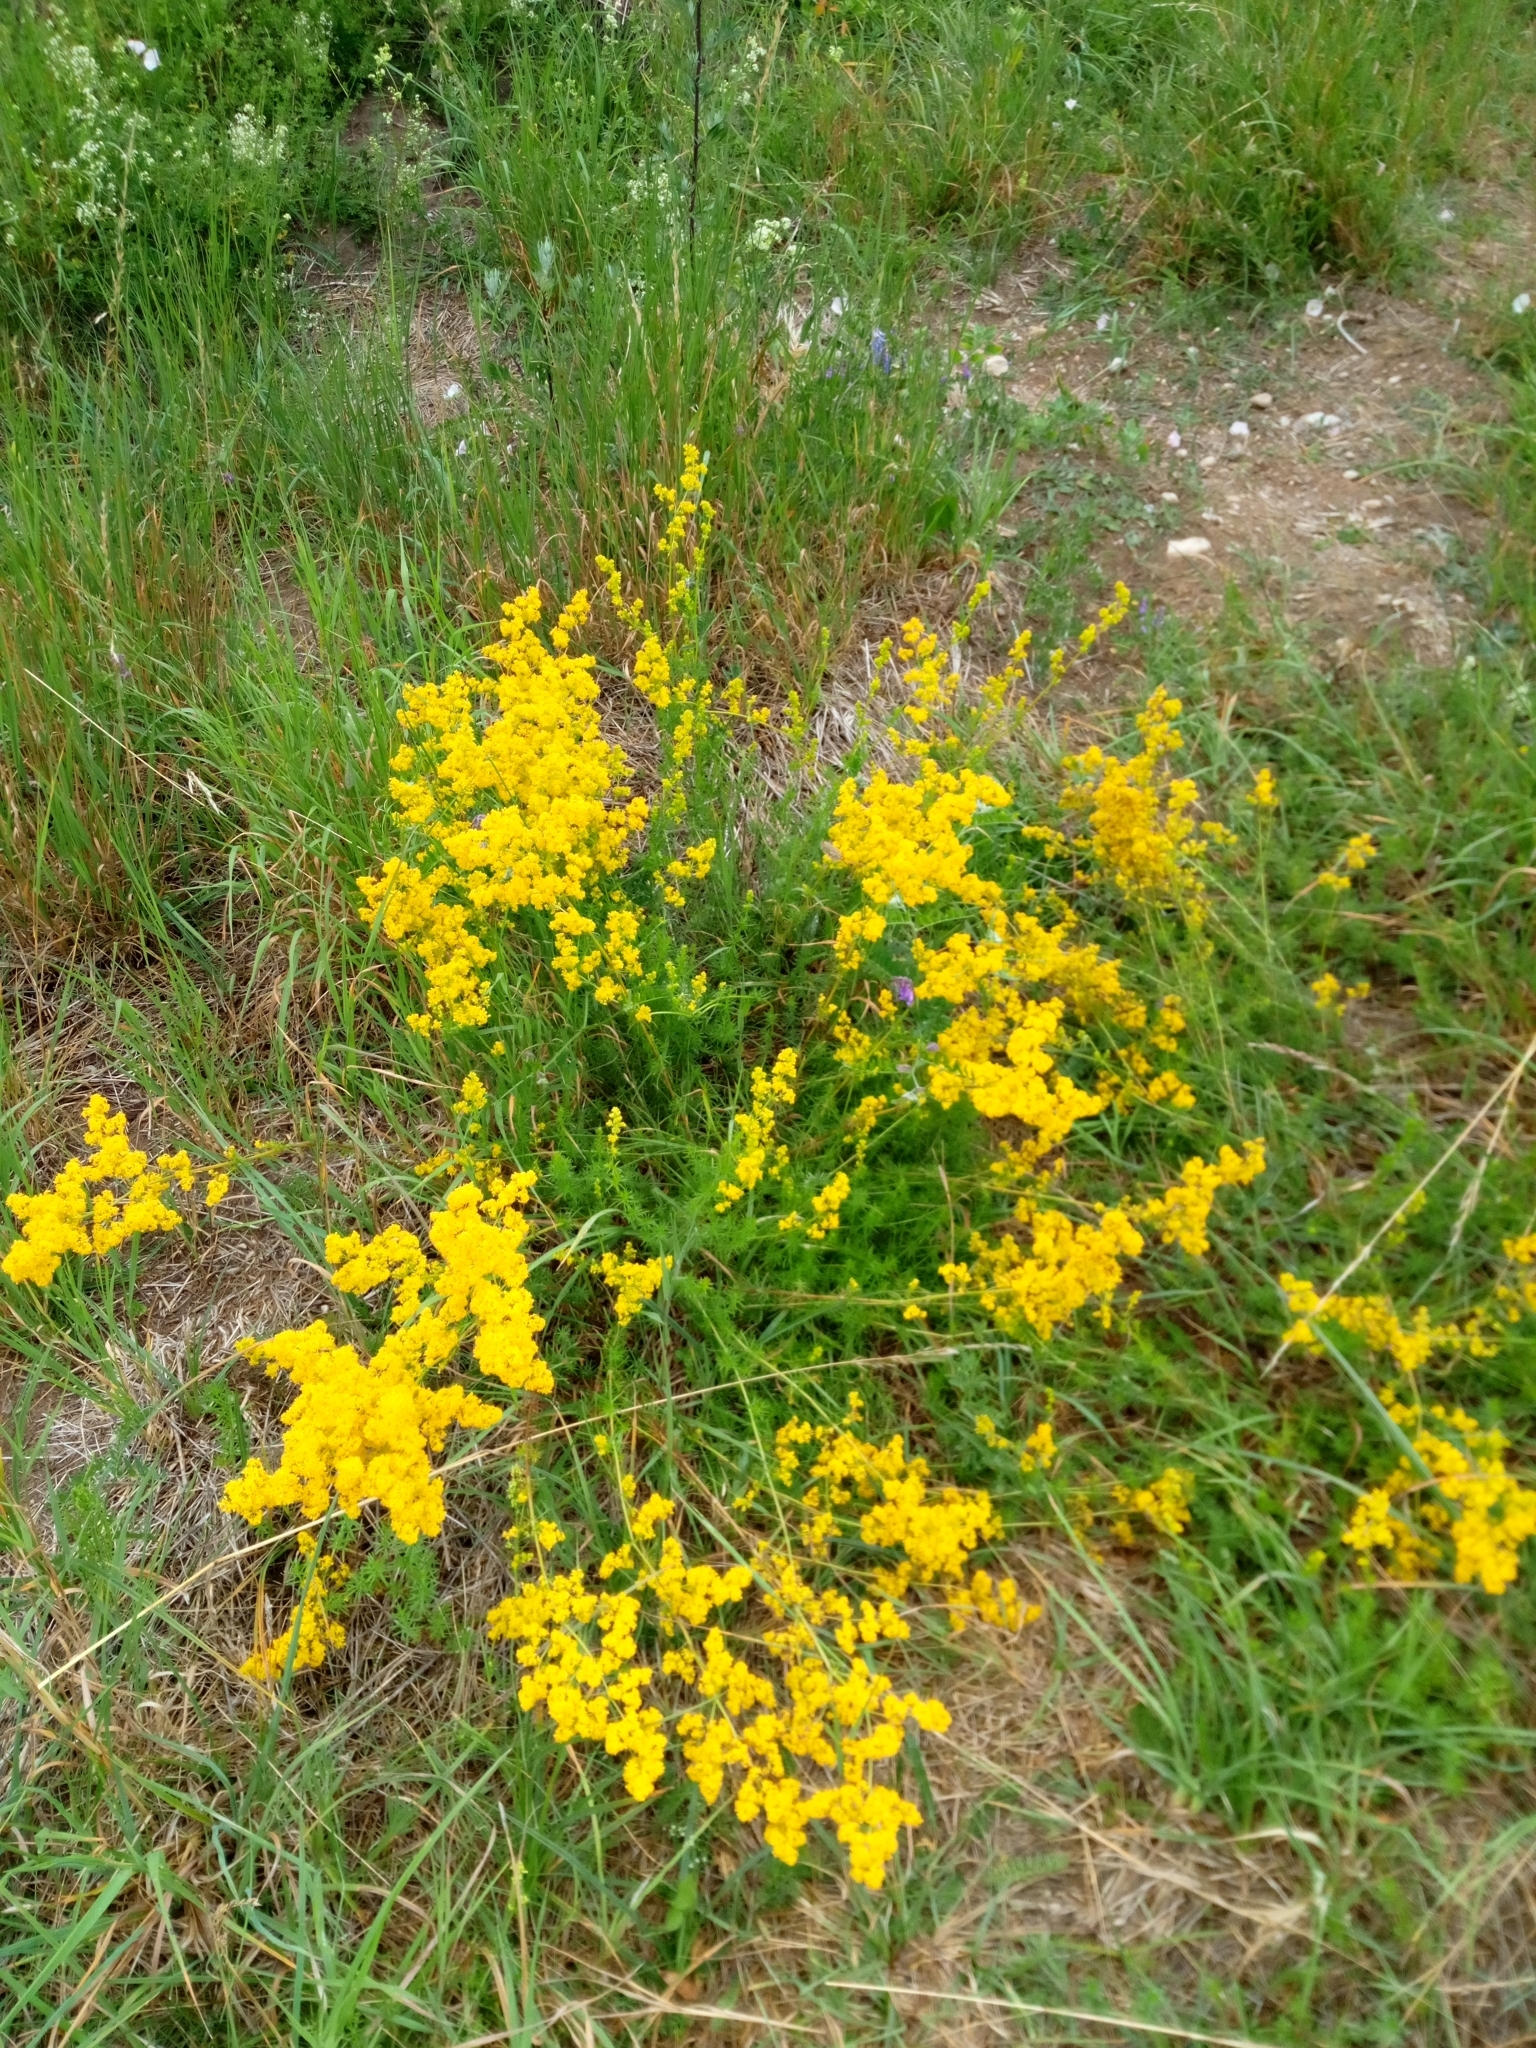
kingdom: Plantae
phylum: Tracheophyta
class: Magnoliopsida
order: Gentianales
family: Rubiaceae
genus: Galium
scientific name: Galium verum
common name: Lady's bedstraw
